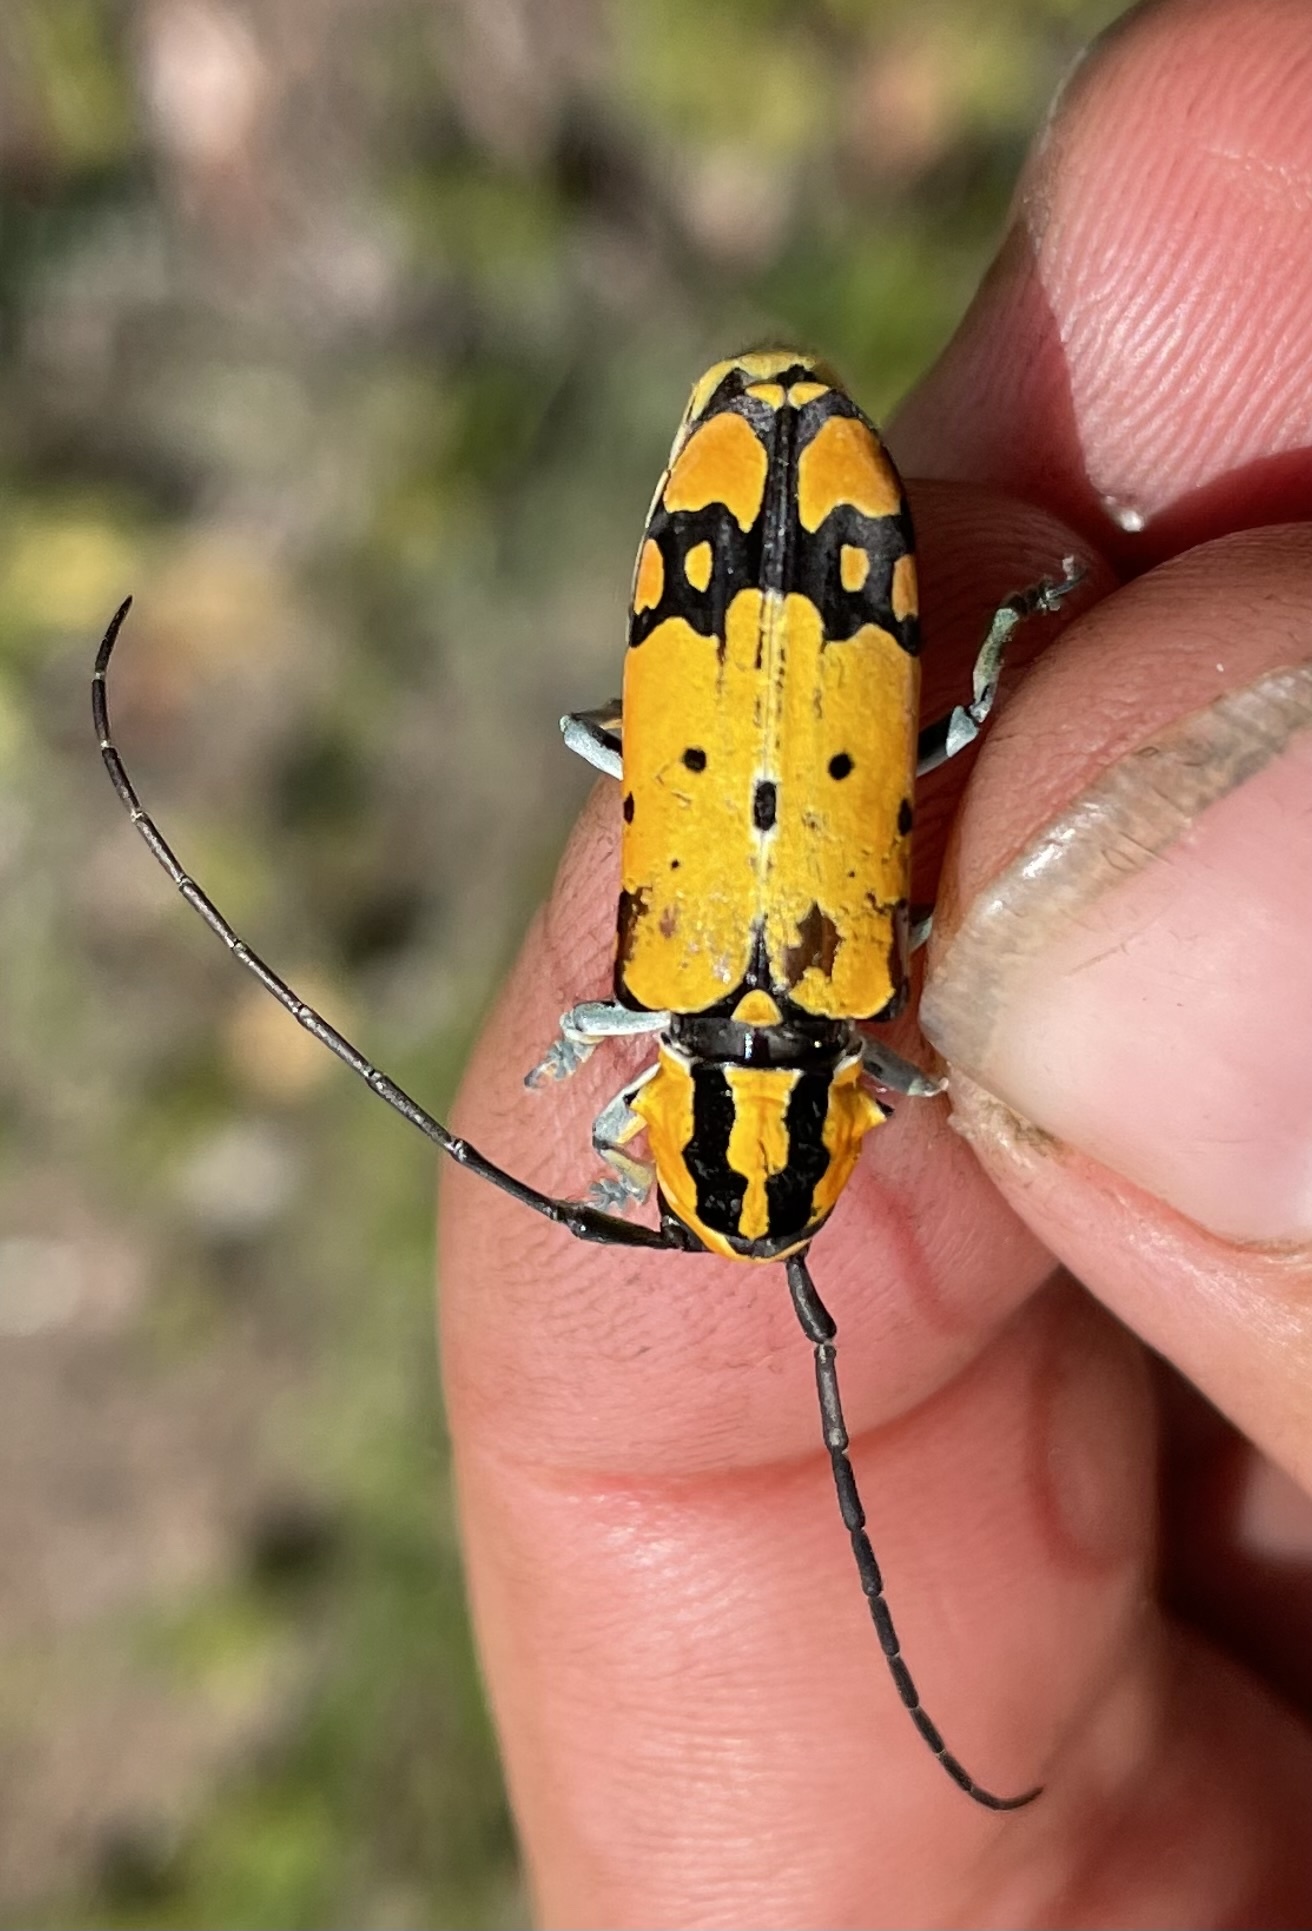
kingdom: Animalia
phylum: Arthropoda
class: Insecta
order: Coleoptera
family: Cerambycidae
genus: Tragocephala
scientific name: Tragocephala variegata
